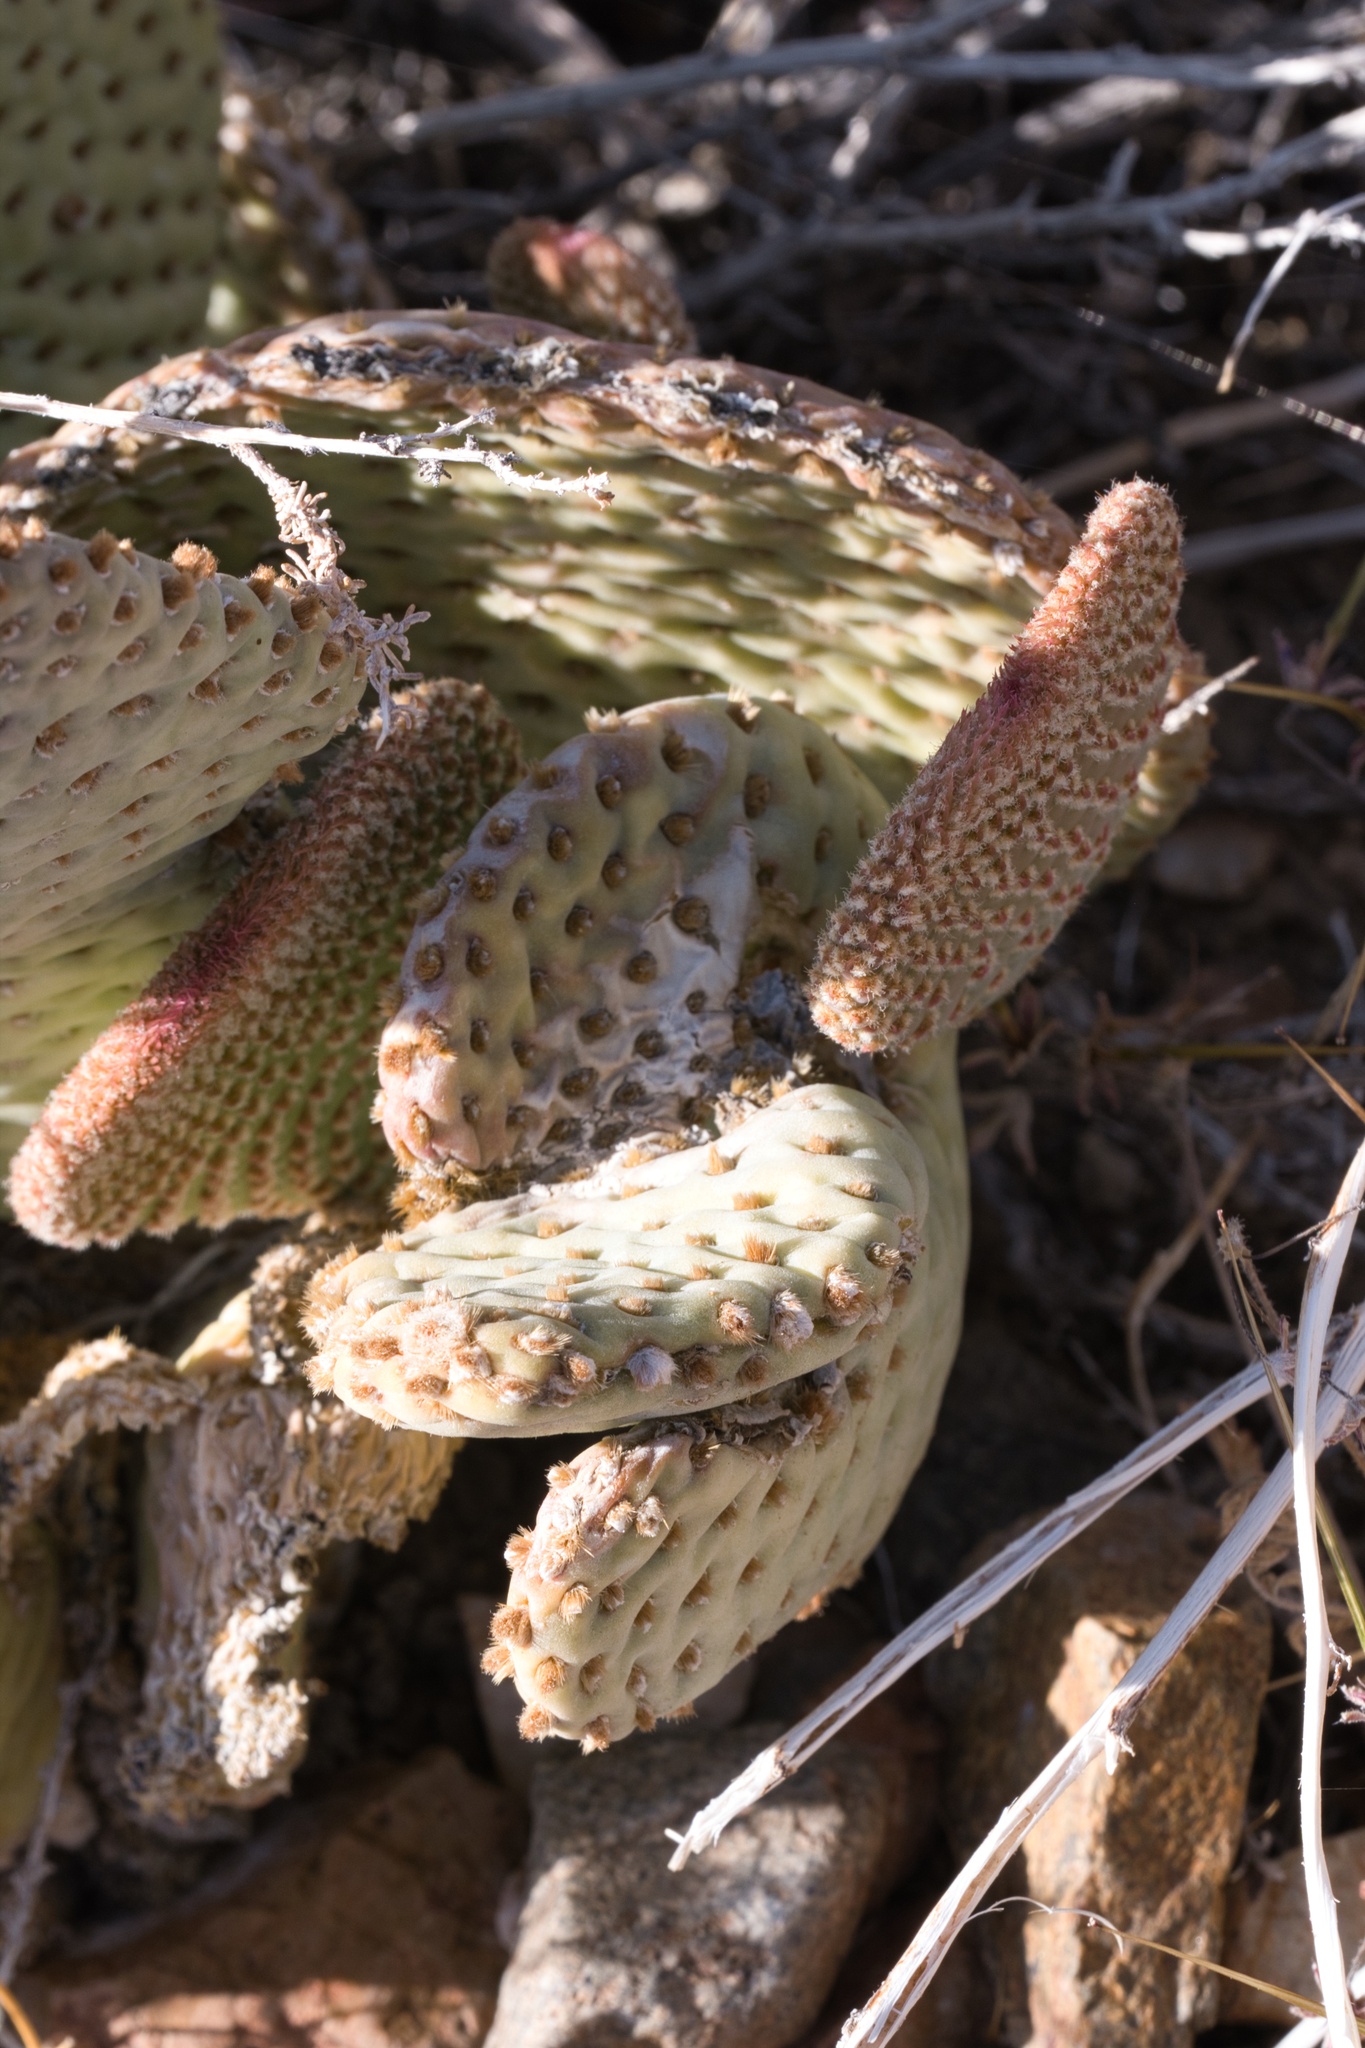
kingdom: Plantae
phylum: Tracheophyta
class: Magnoliopsida
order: Caryophyllales
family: Cactaceae
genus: Opuntia
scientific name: Opuntia basilaris
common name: Beavertail prickly-pear
